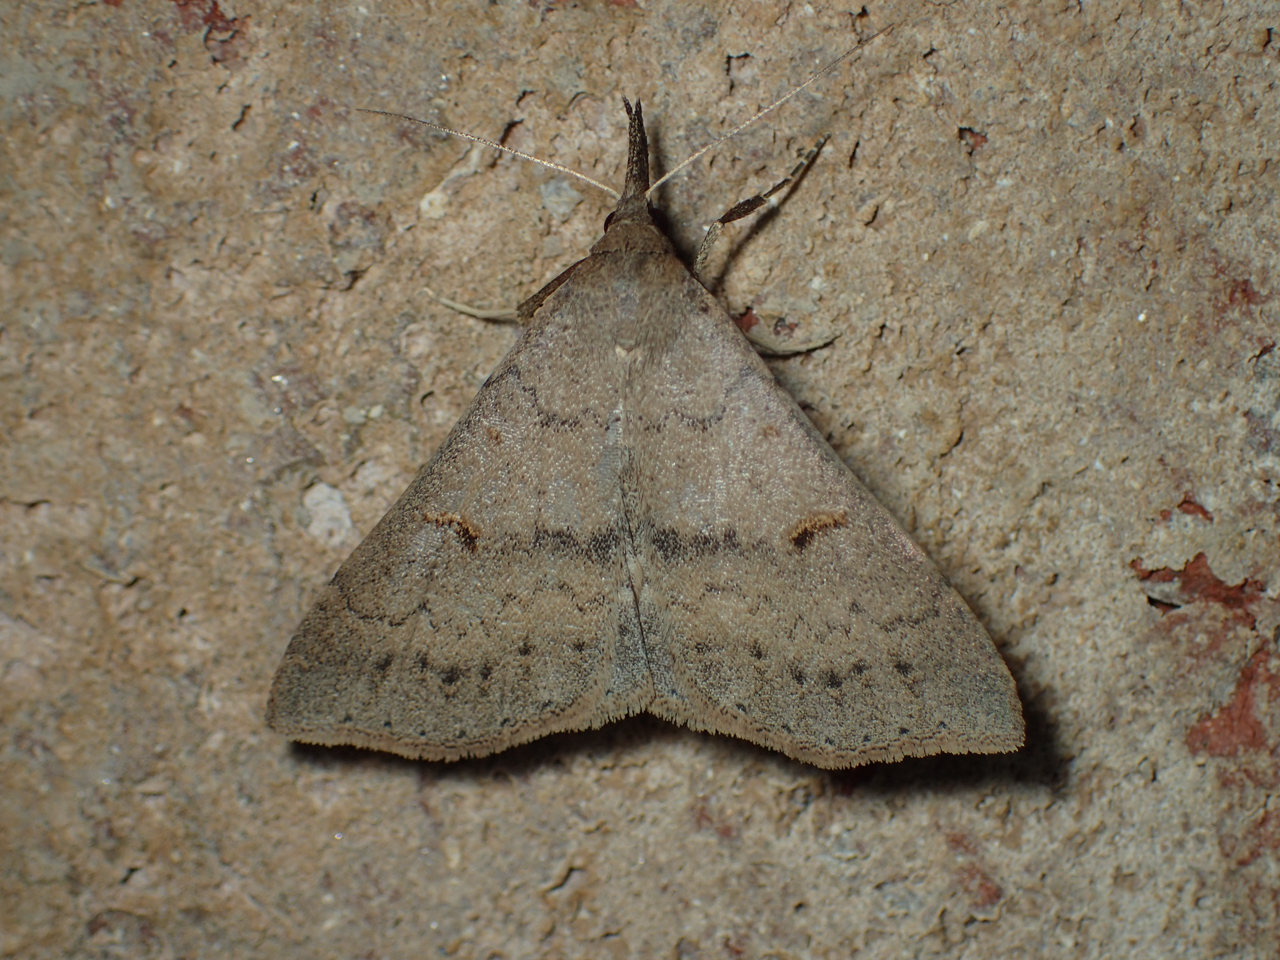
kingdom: Animalia
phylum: Arthropoda
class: Insecta
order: Lepidoptera
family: Erebidae
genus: Renia
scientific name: Renia adspergillus
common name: Speckled renia moth
